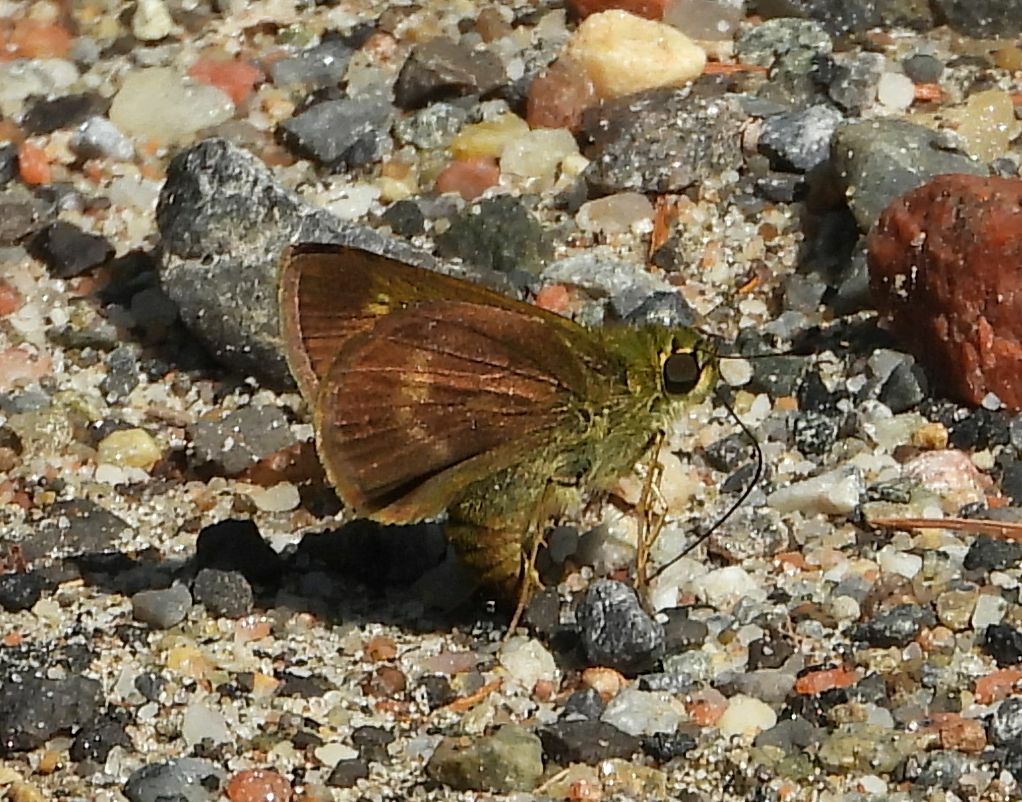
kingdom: Animalia
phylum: Arthropoda
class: Insecta
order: Lepidoptera
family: Hesperiidae
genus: Polites
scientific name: Polites egeremet
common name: Northern broken-dash
